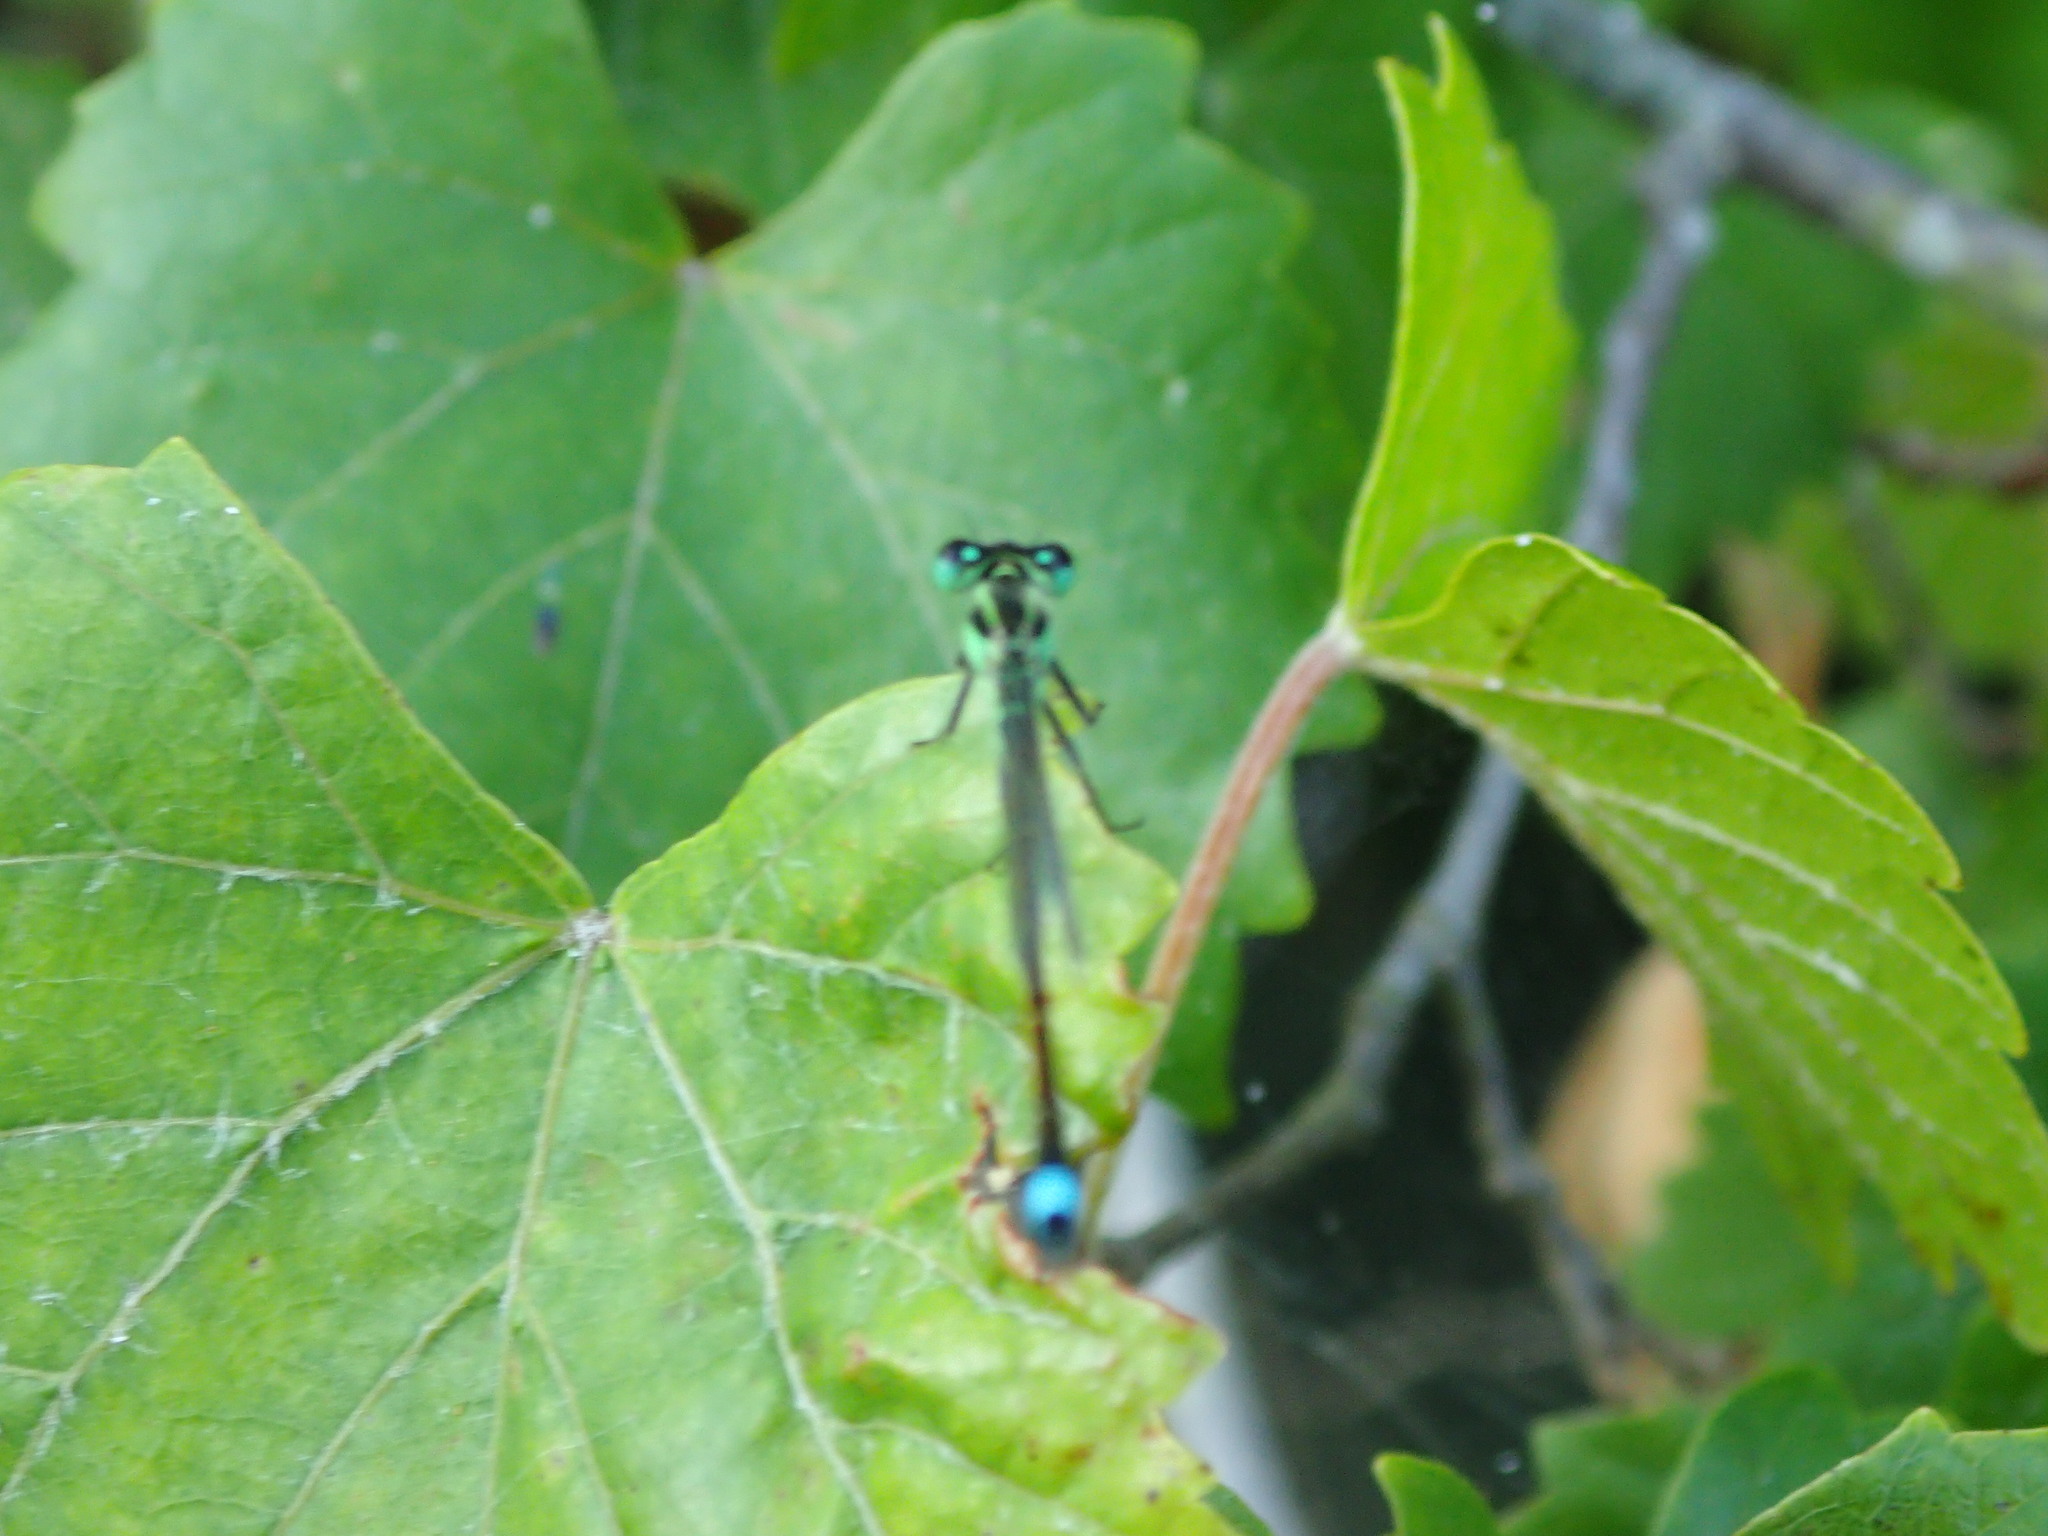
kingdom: Animalia
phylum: Arthropoda
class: Insecta
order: Odonata
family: Coenagrionidae
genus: Ischnura
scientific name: Ischnura ramburii
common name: Rambur's forktail
